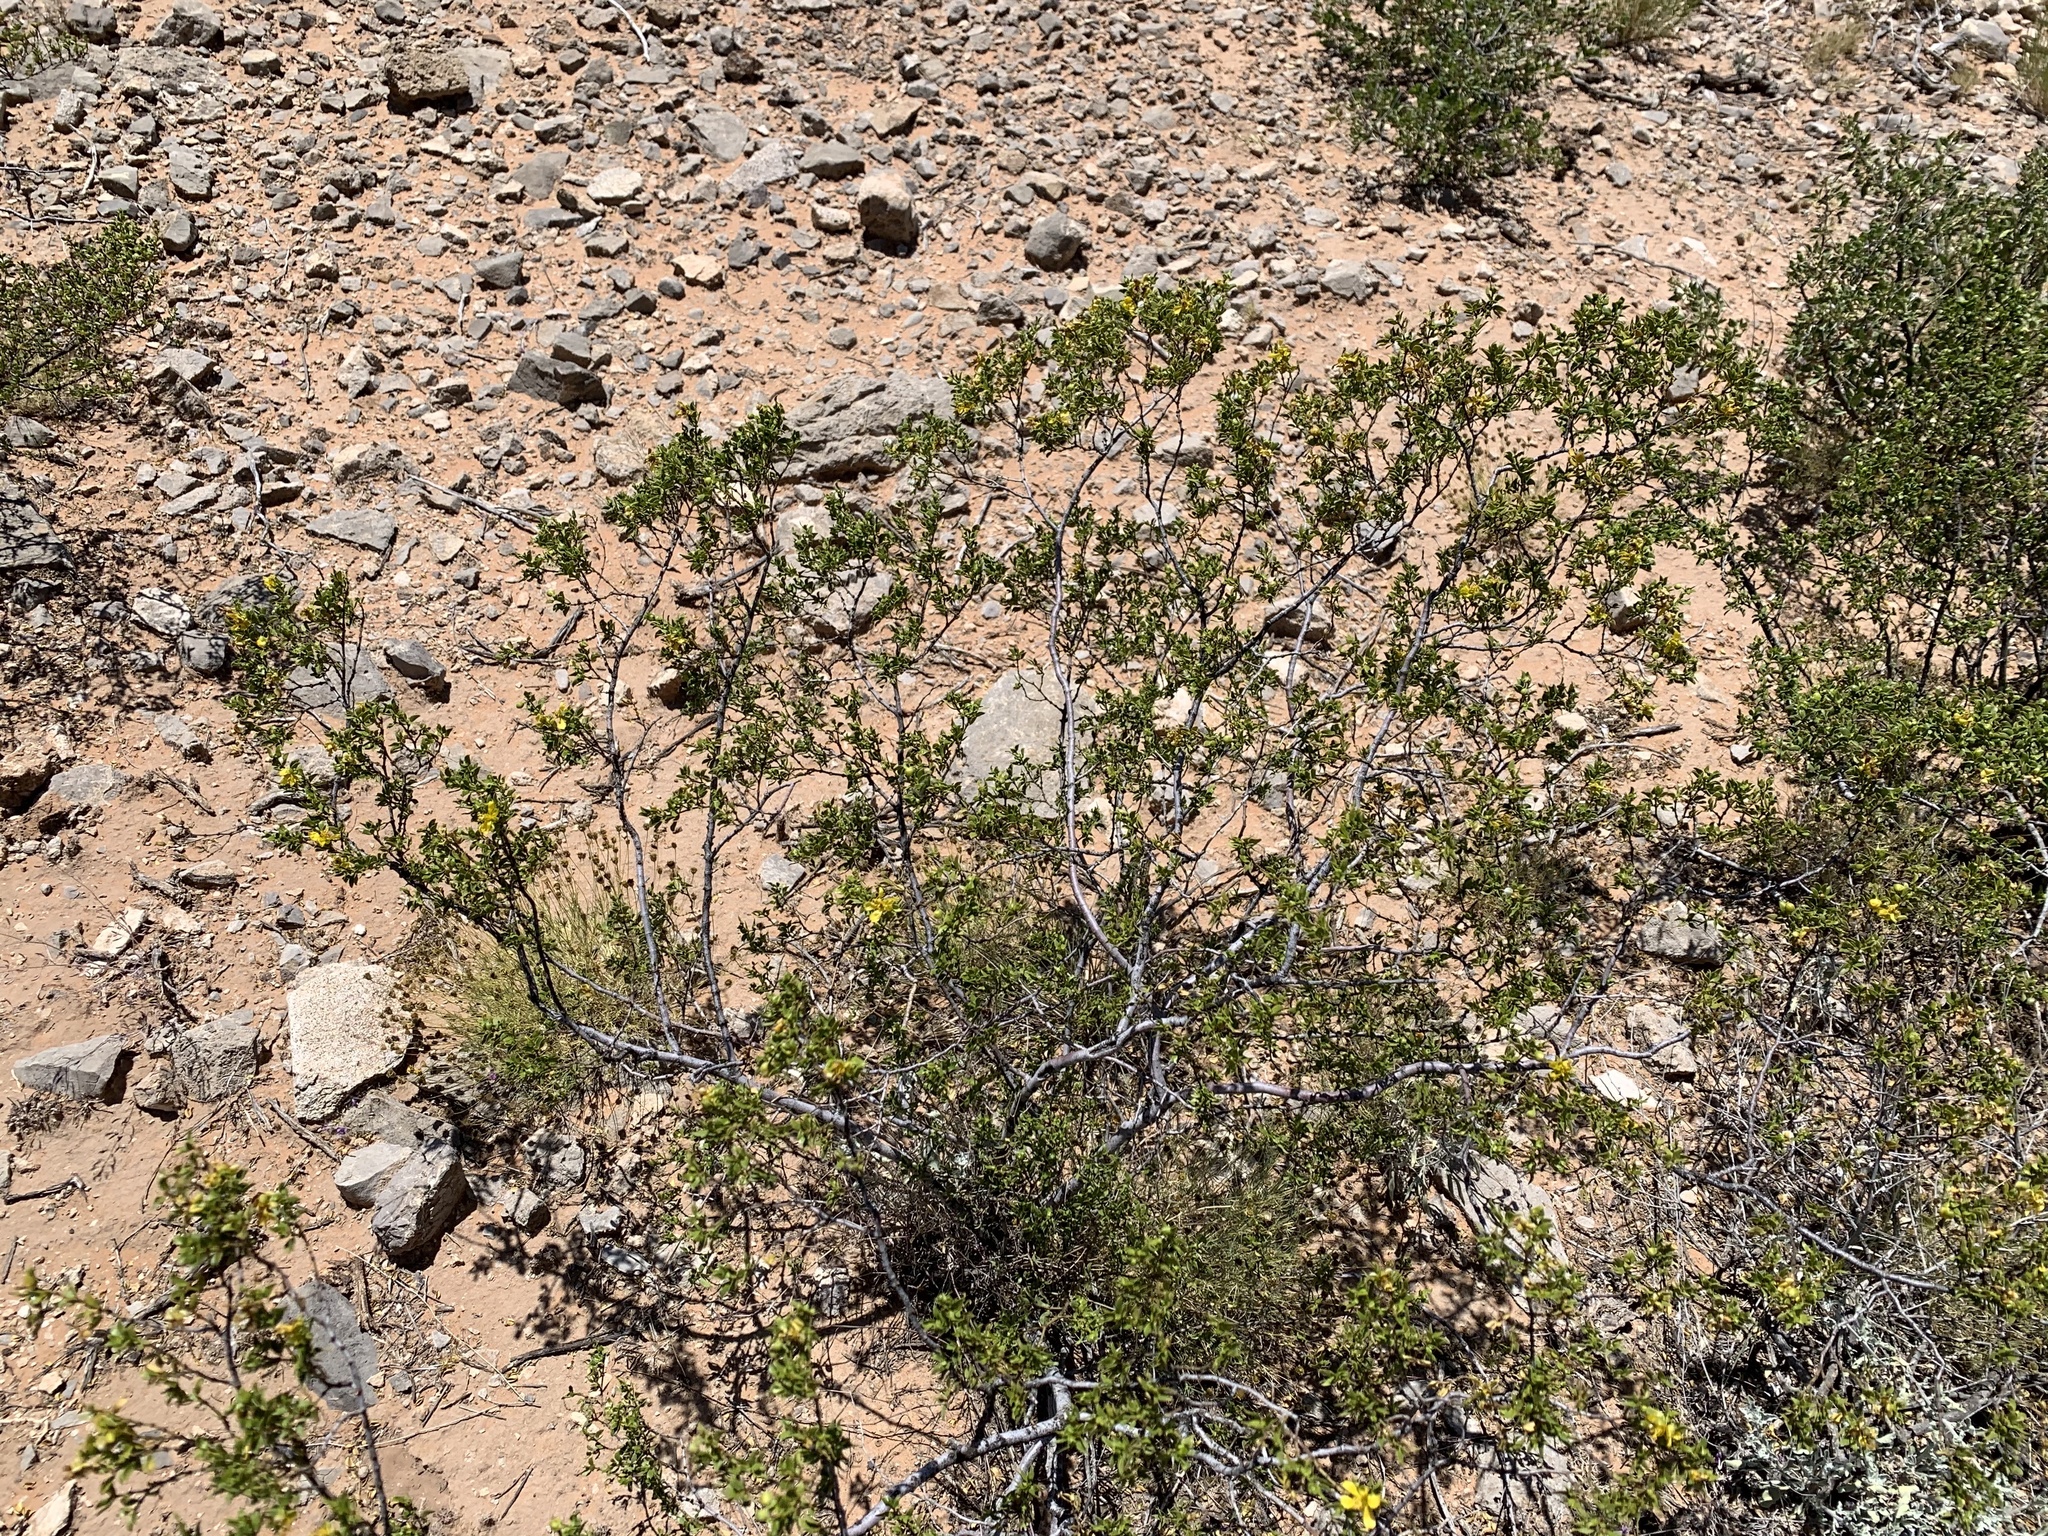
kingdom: Plantae
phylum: Tracheophyta
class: Magnoliopsida
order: Zygophyllales
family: Zygophyllaceae
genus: Larrea
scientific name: Larrea tridentata
